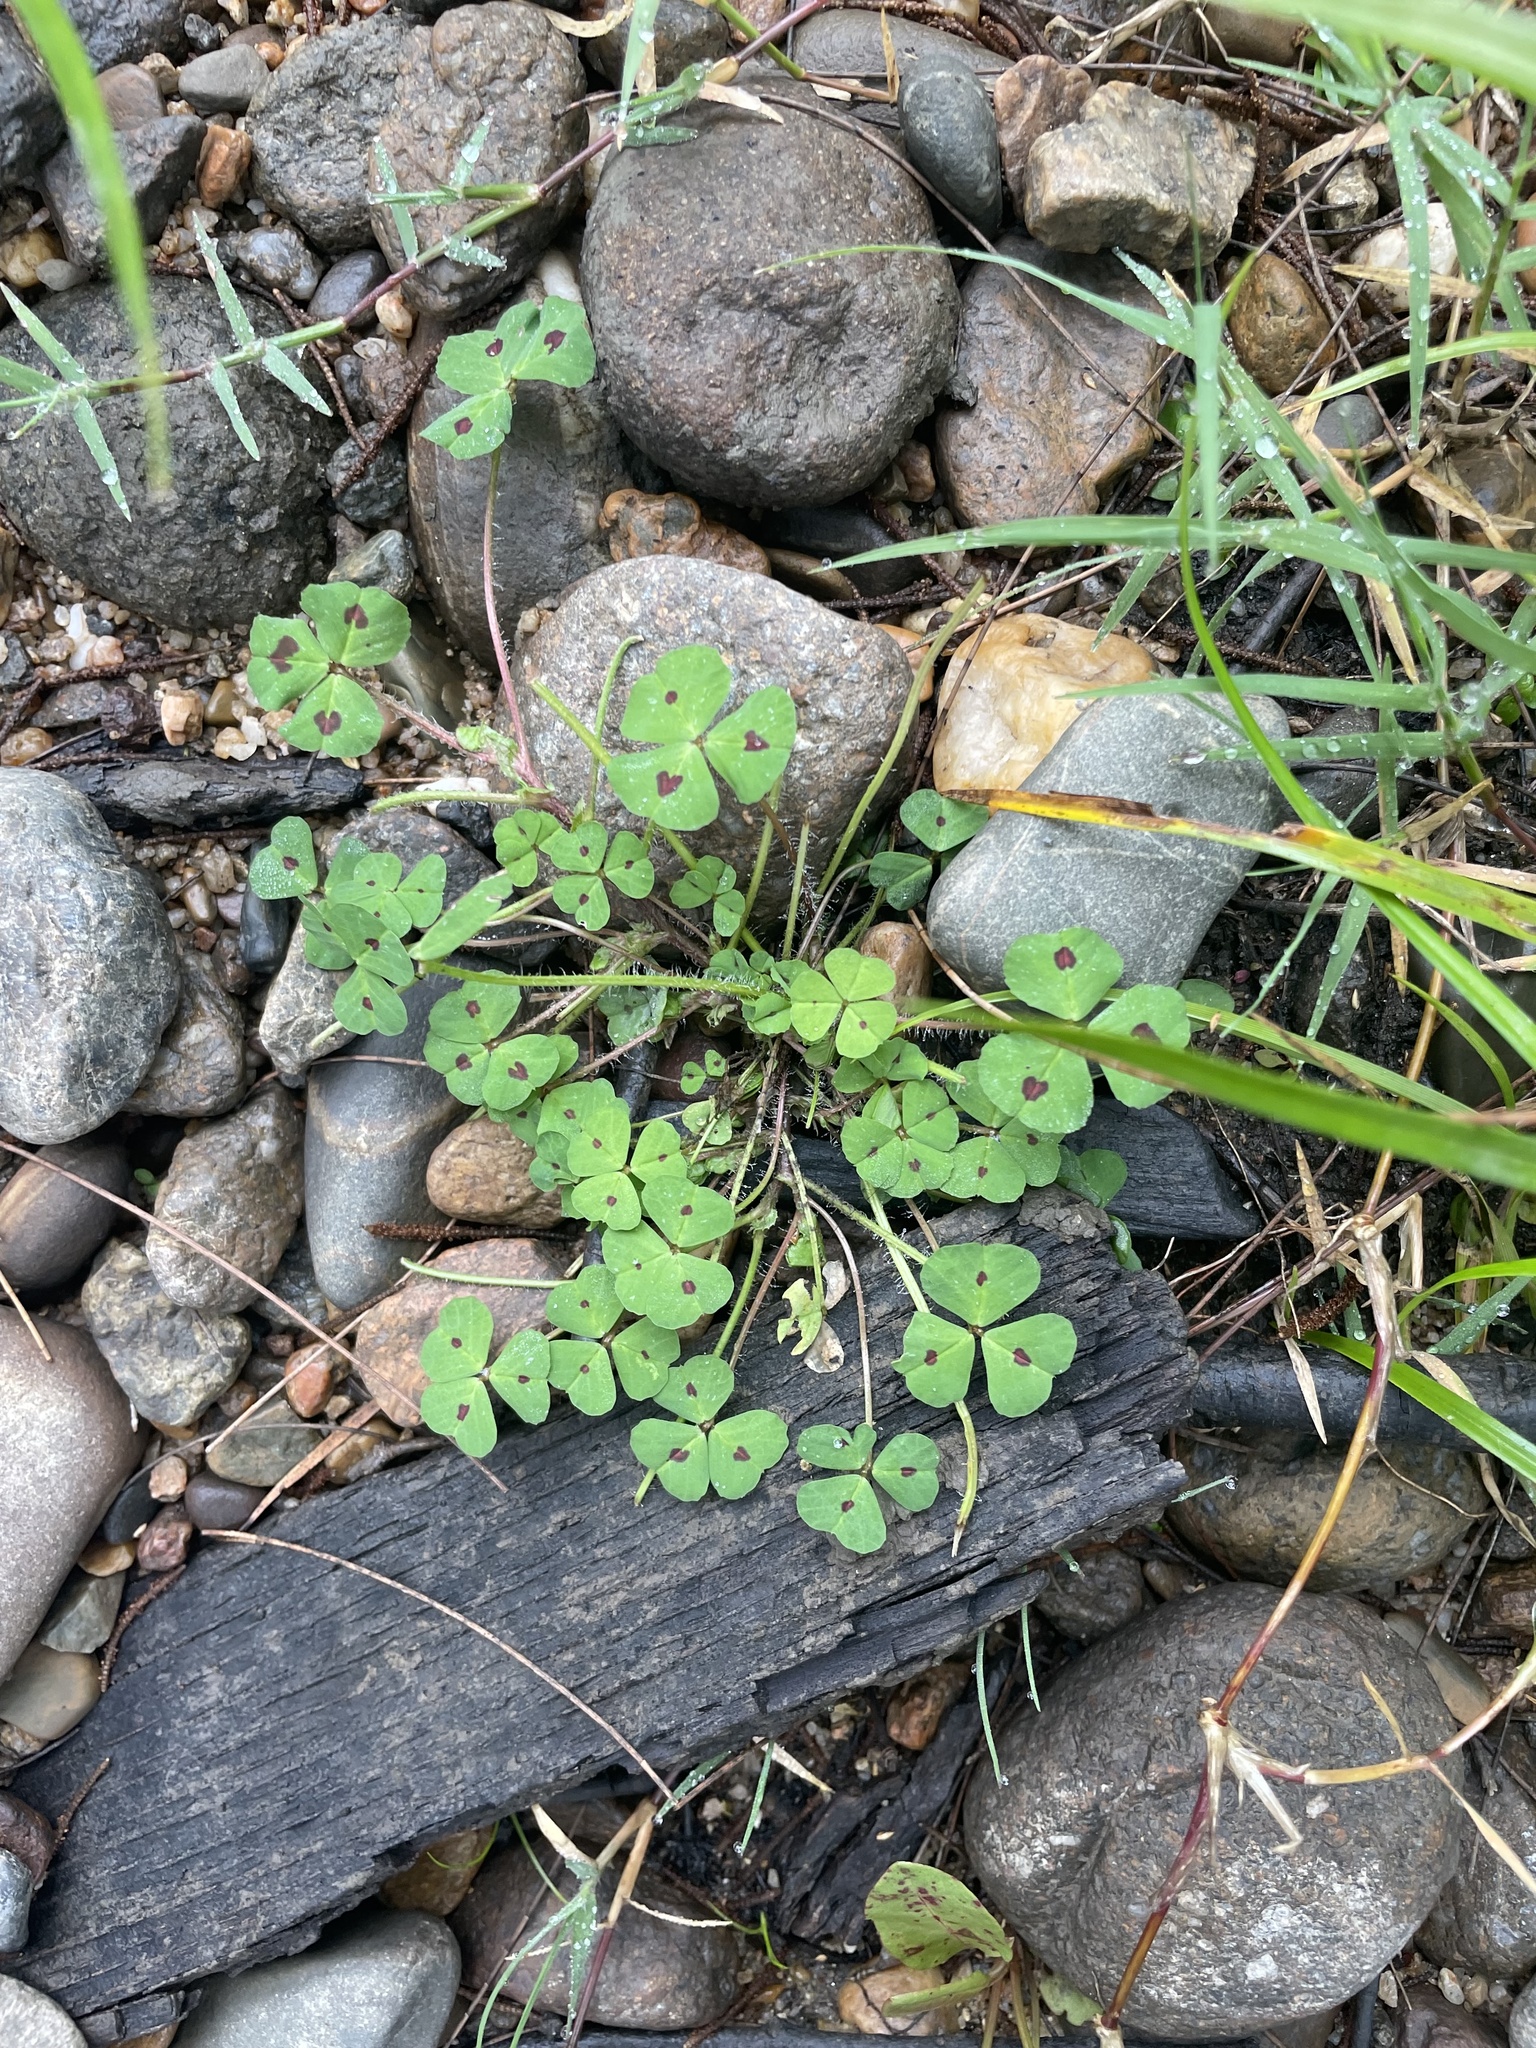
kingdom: Plantae
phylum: Tracheophyta
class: Magnoliopsida
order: Fabales
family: Fabaceae
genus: Medicago
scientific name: Medicago arabica
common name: Spotted medick
